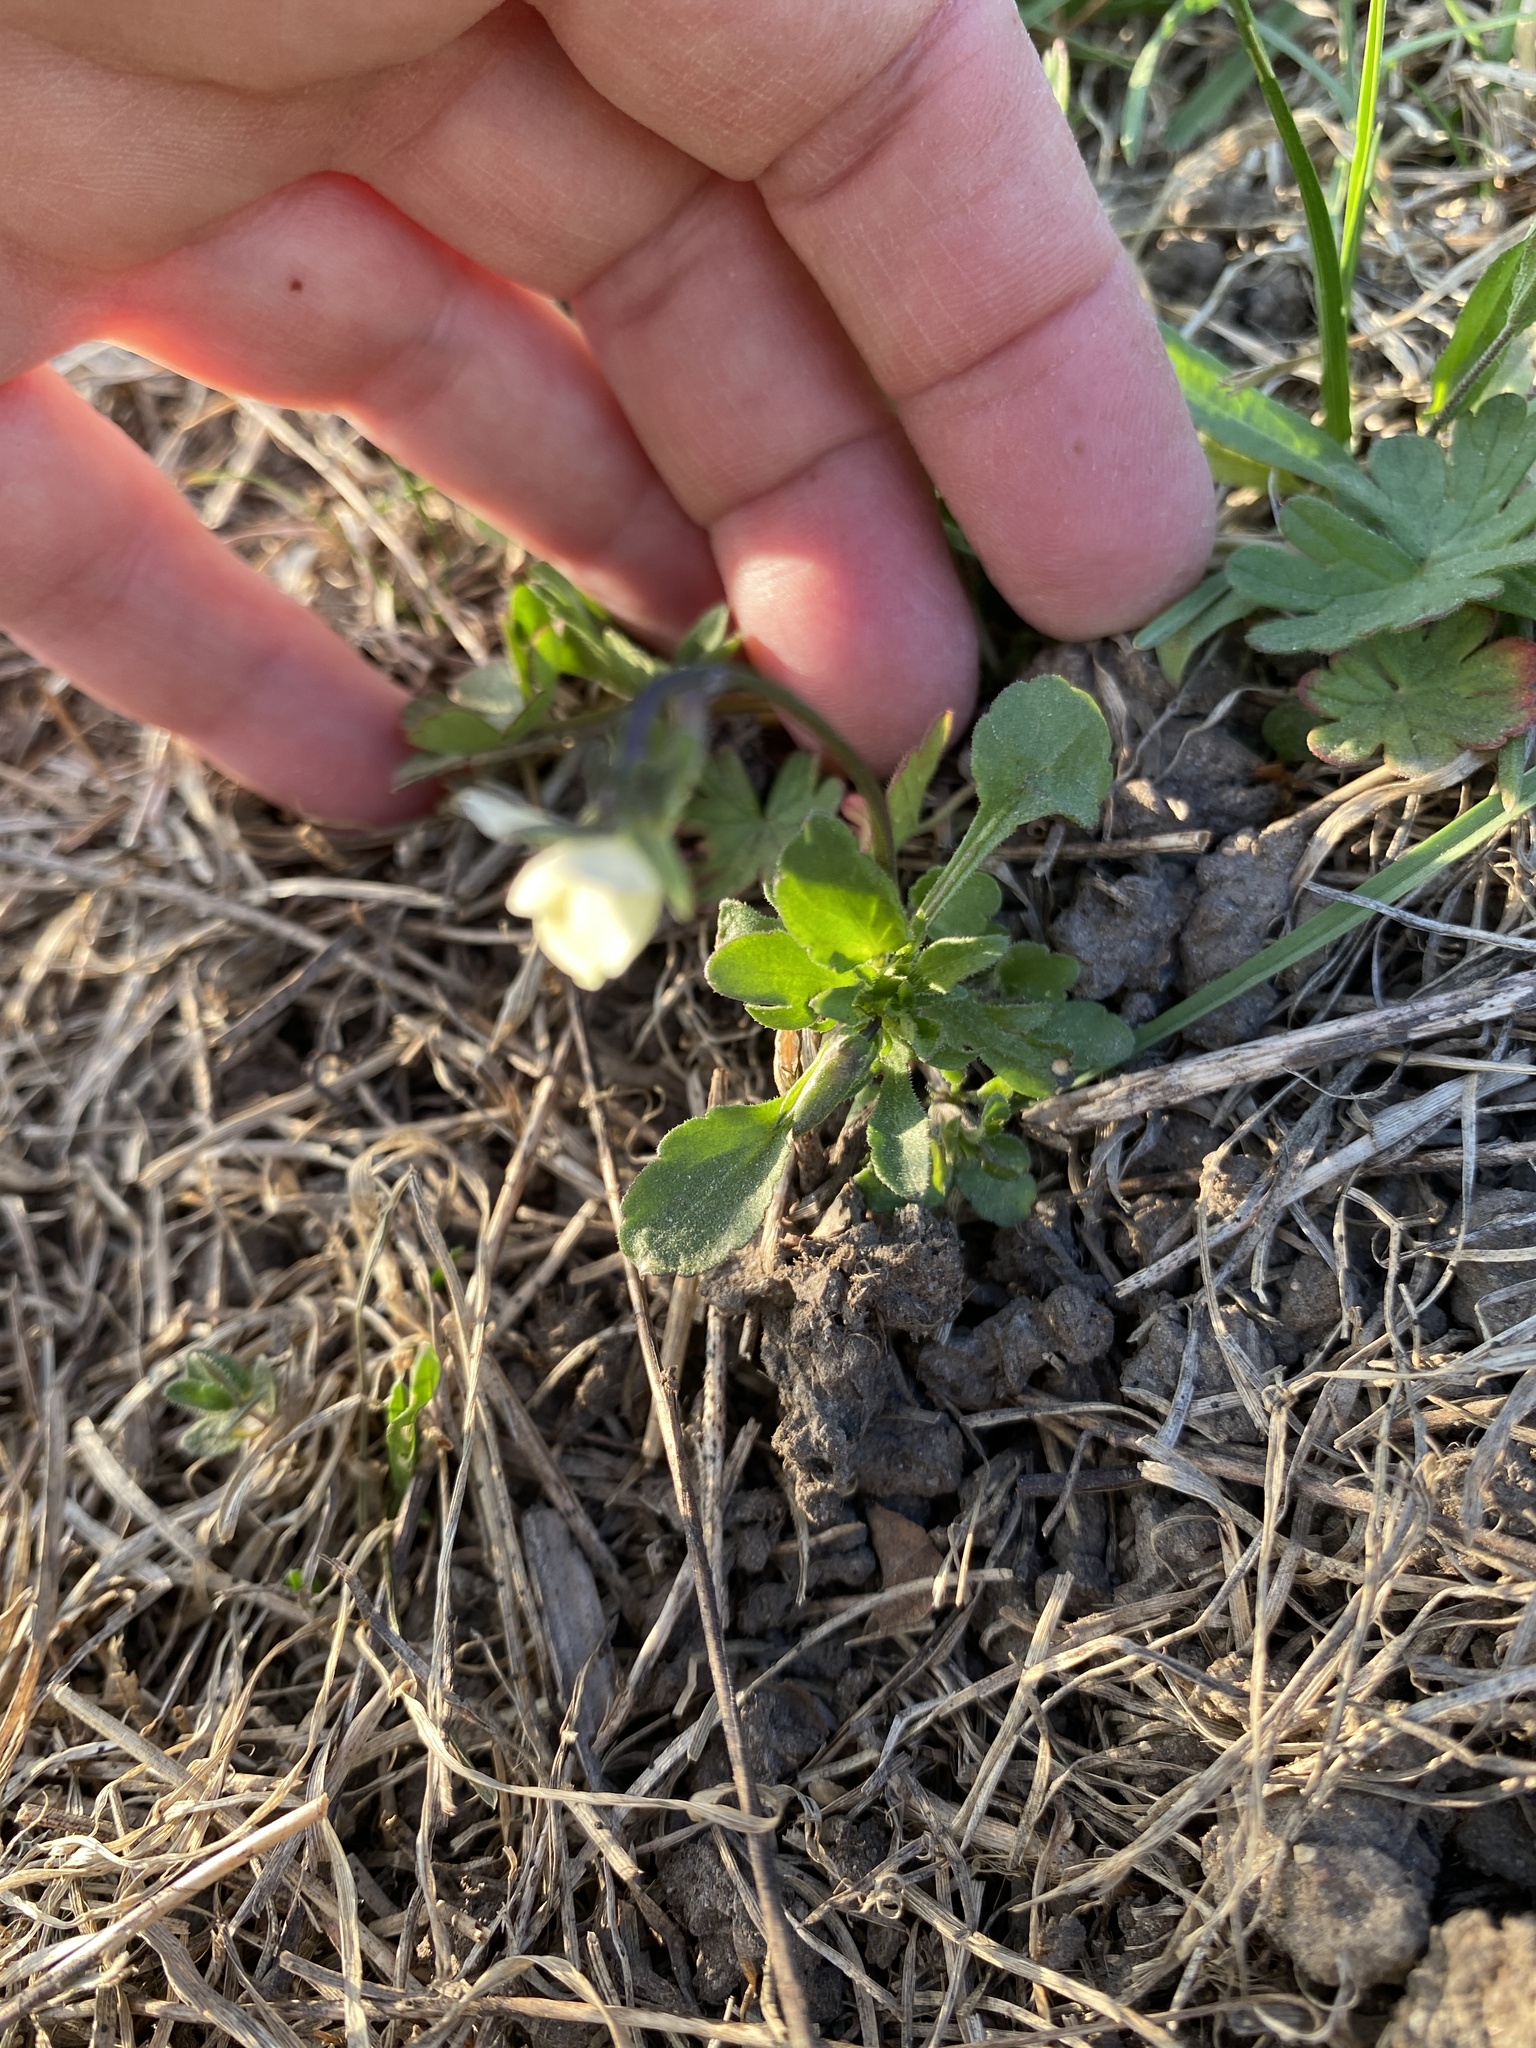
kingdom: Plantae
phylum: Tracheophyta
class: Magnoliopsida
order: Malpighiales
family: Violaceae
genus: Viola
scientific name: Viola arvensis
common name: Field pansy
